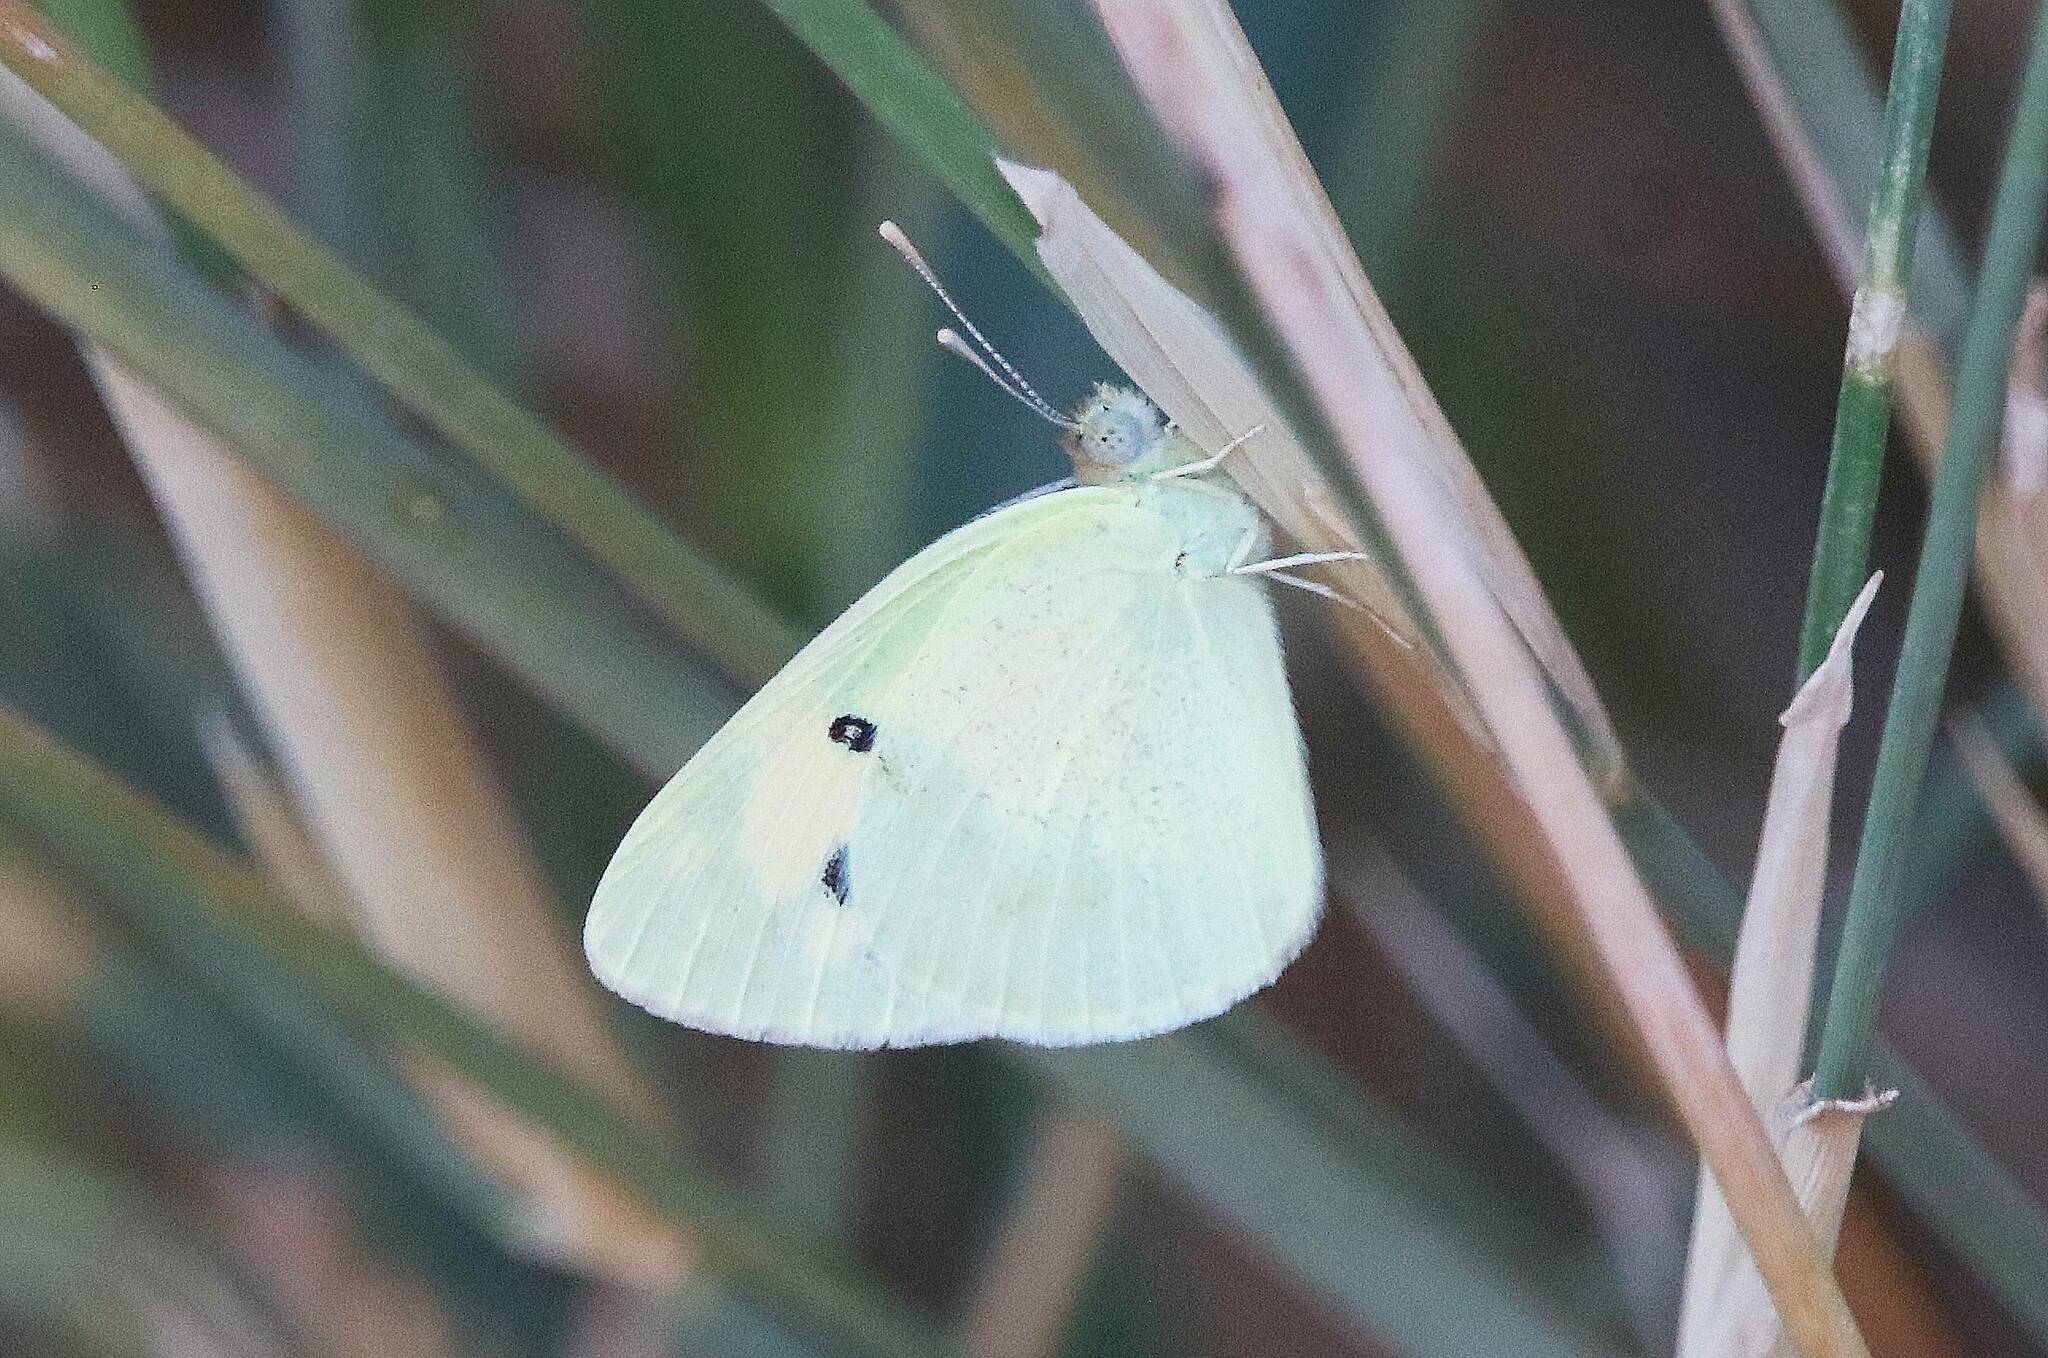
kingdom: Animalia
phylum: Arthropoda
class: Insecta
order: Lepidoptera
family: Pieridae
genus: Colotis
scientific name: Colotis phisadia
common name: Blue spotted arab
